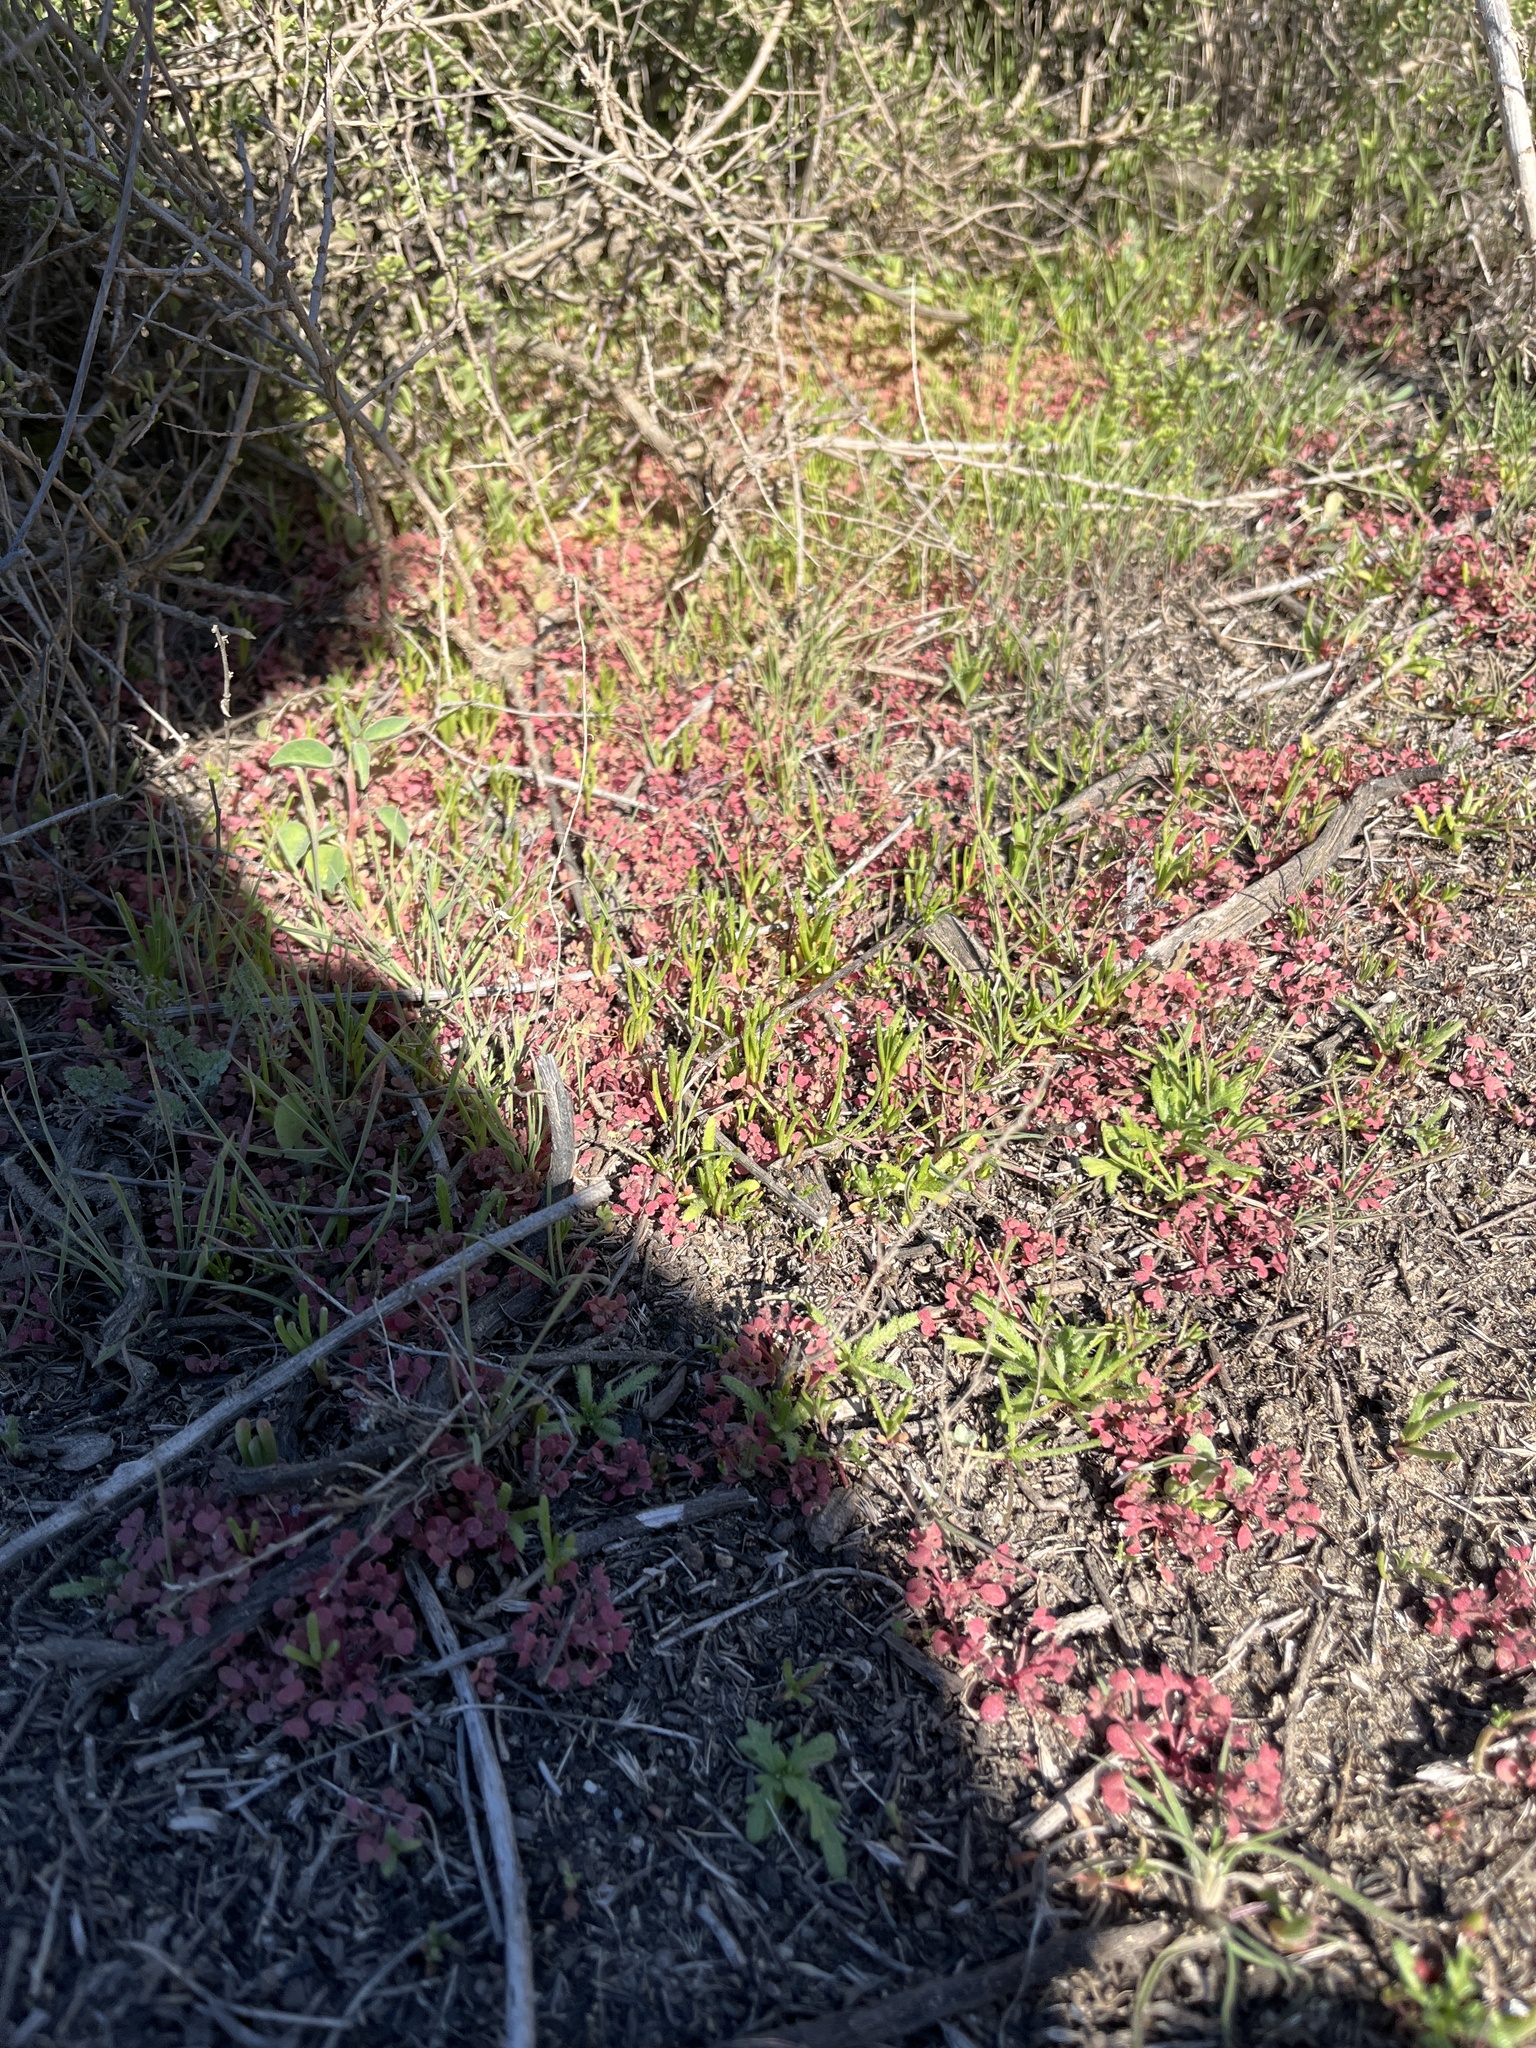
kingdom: Plantae
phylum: Tracheophyta
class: Magnoliopsida
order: Caryophyllales
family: Polygonaceae
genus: Pterostegia
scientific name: Pterostegia drymarioides
